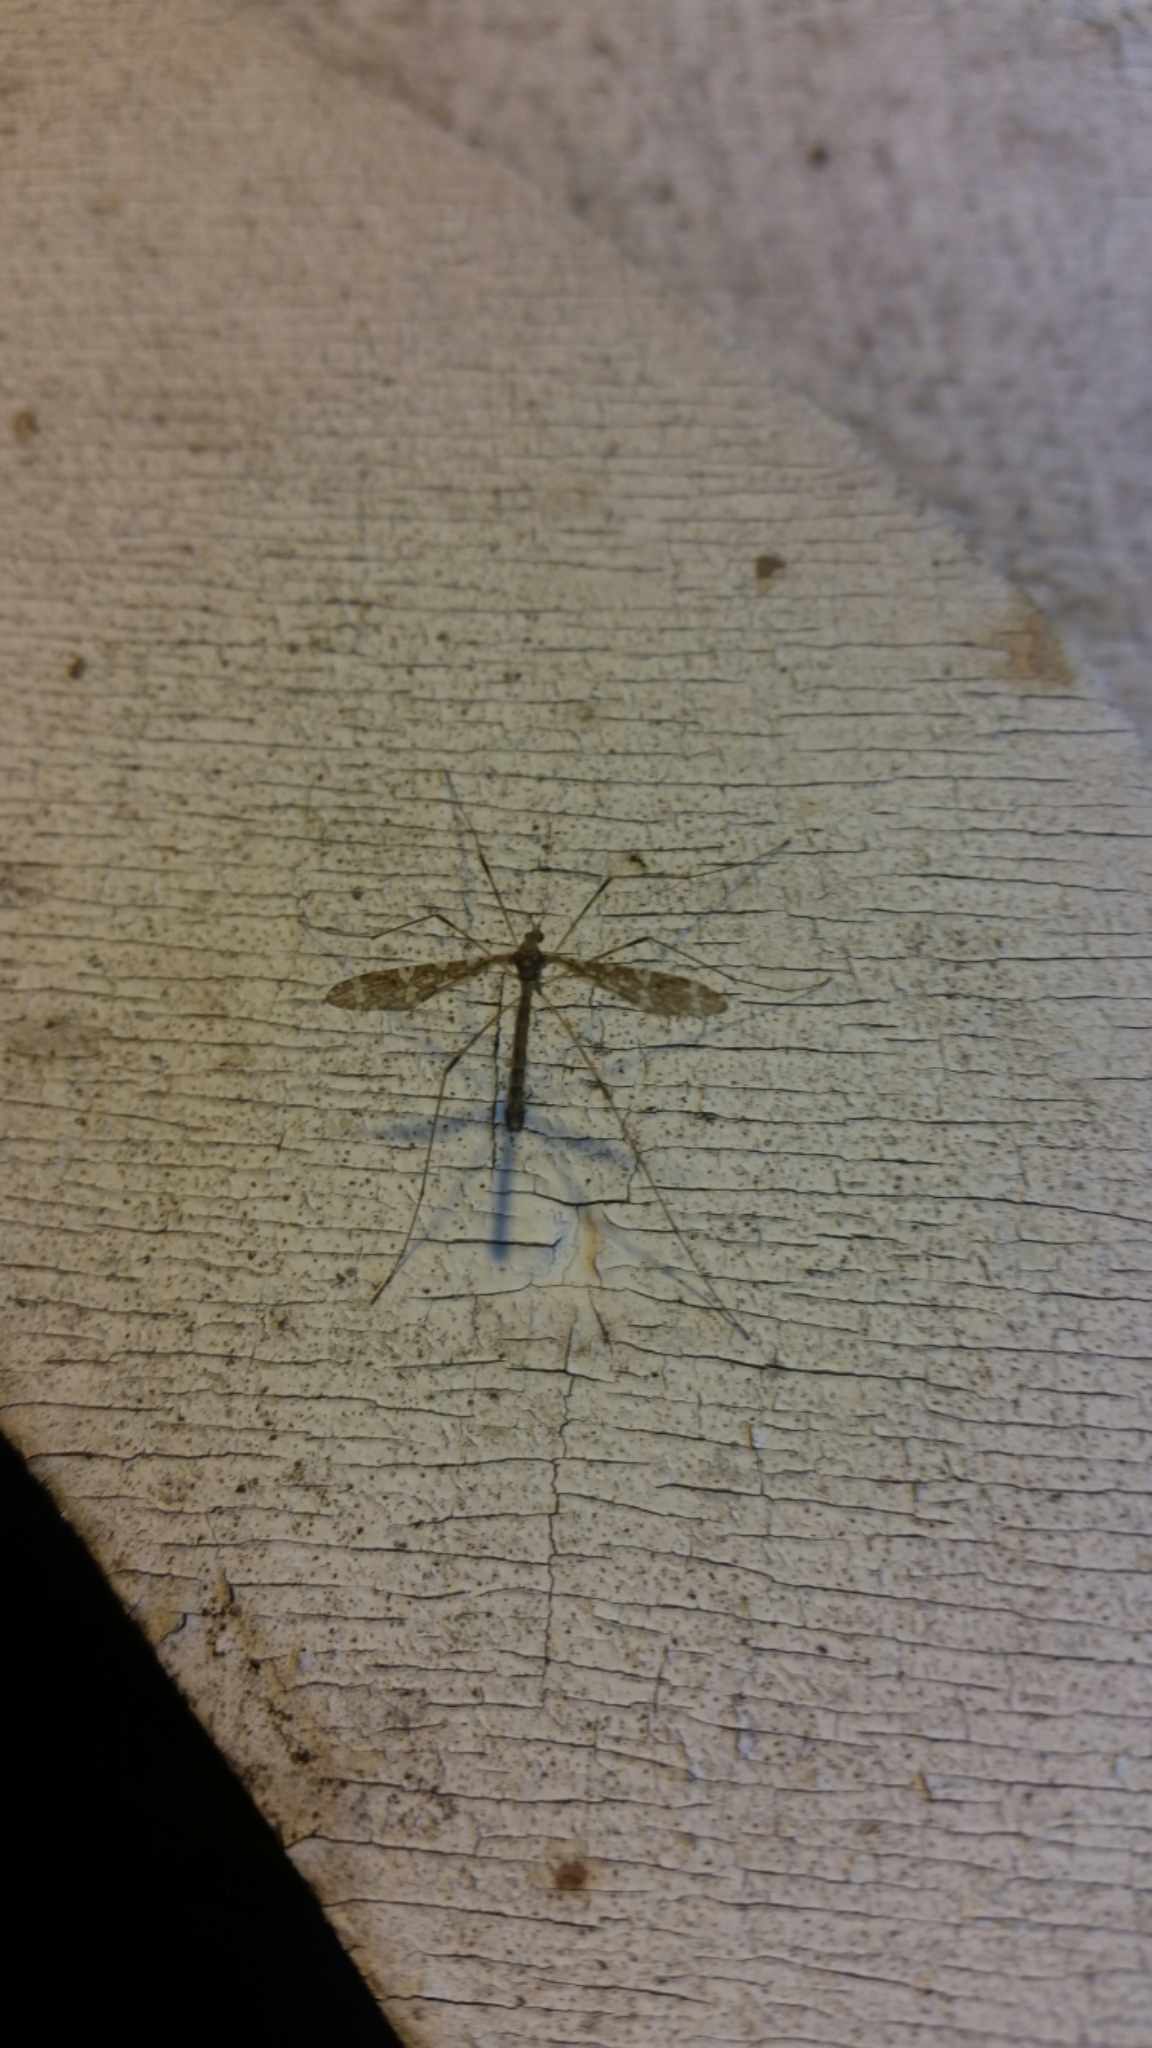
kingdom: Animalia
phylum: Arthropoda
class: Insecta
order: Diptera
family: Limoniidae
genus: Epiphragma
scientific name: Epiphragma fasciapenne
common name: Band-winged crane fly
